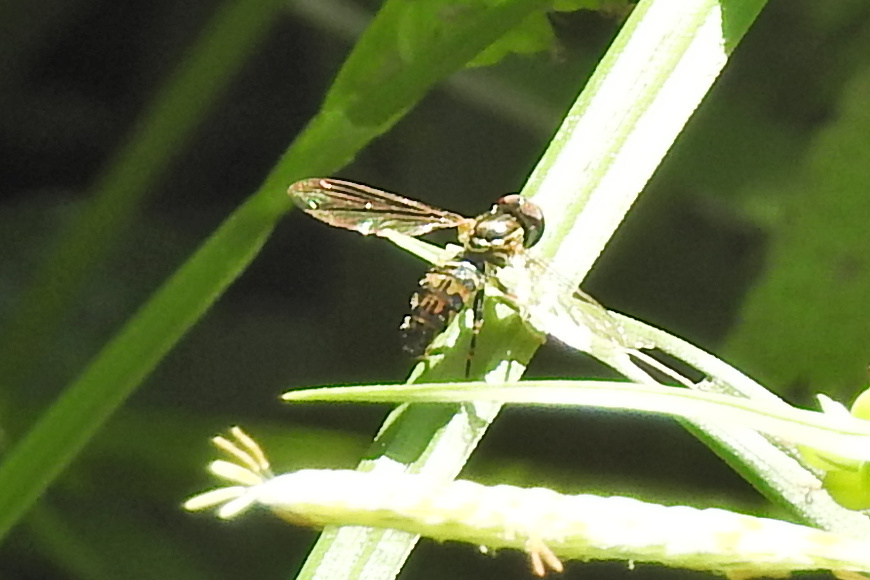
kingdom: Animalia
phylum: Arthropoda
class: Insecta
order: Diptera
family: Syrphidae
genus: Toxomerus
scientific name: Toxomerus geminatus
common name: Eastern calligrapher
